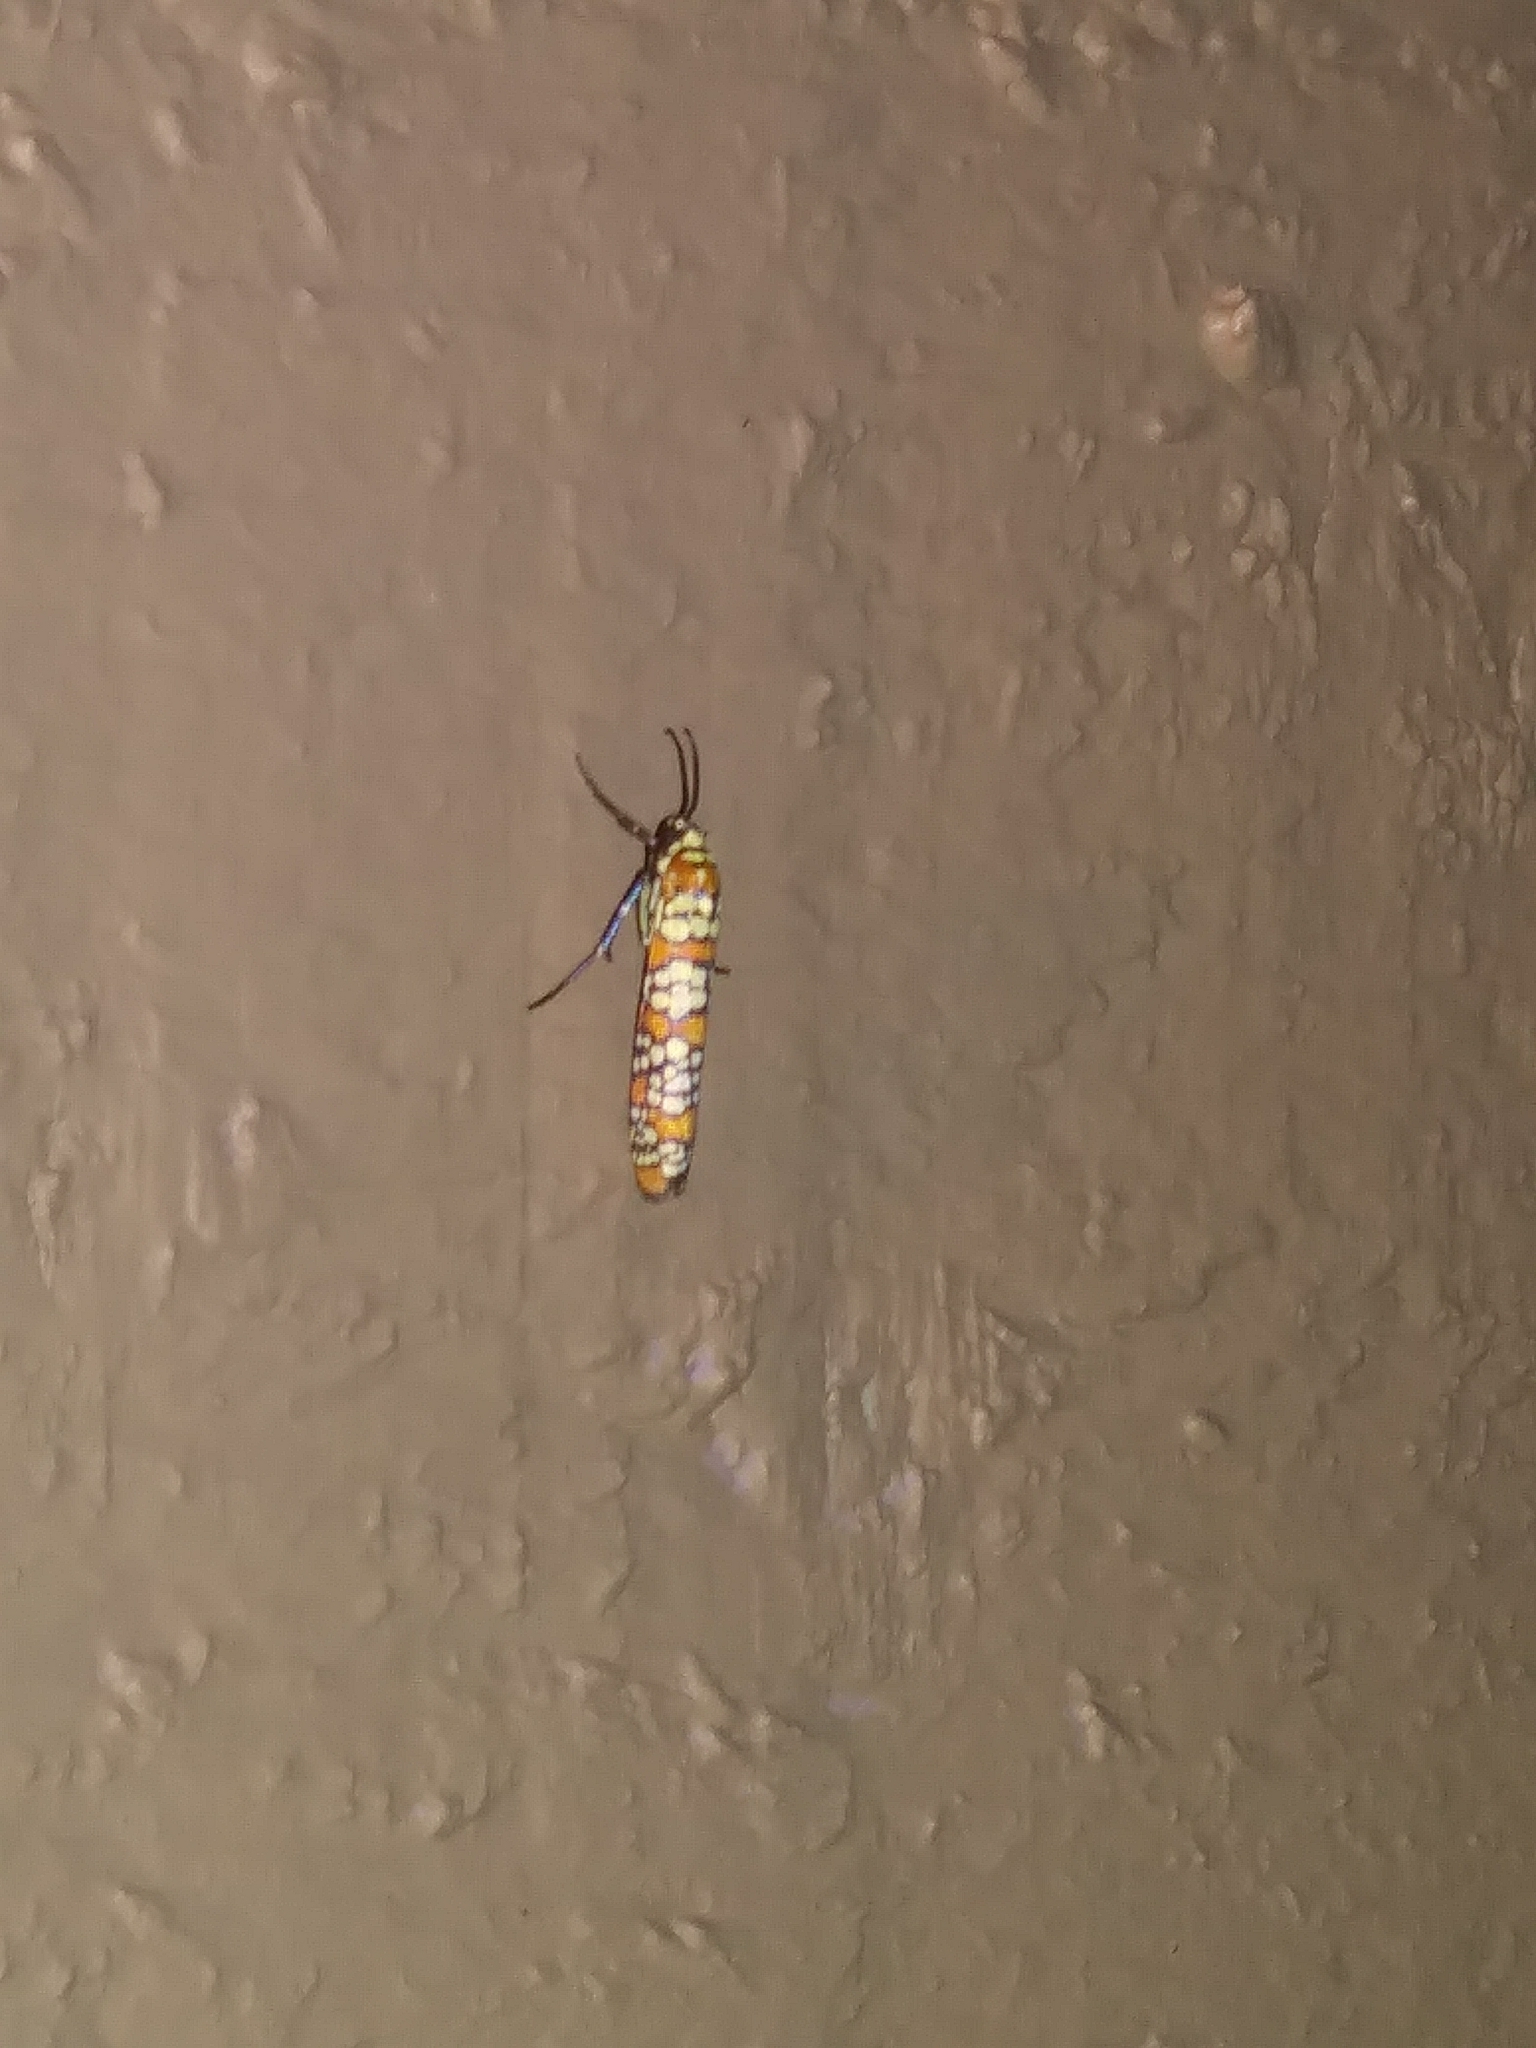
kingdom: Animalia
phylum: Arthropoda
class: Insecta
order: Lepidoptera
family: Attevidae
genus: Atteva
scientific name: Atteva punctella
